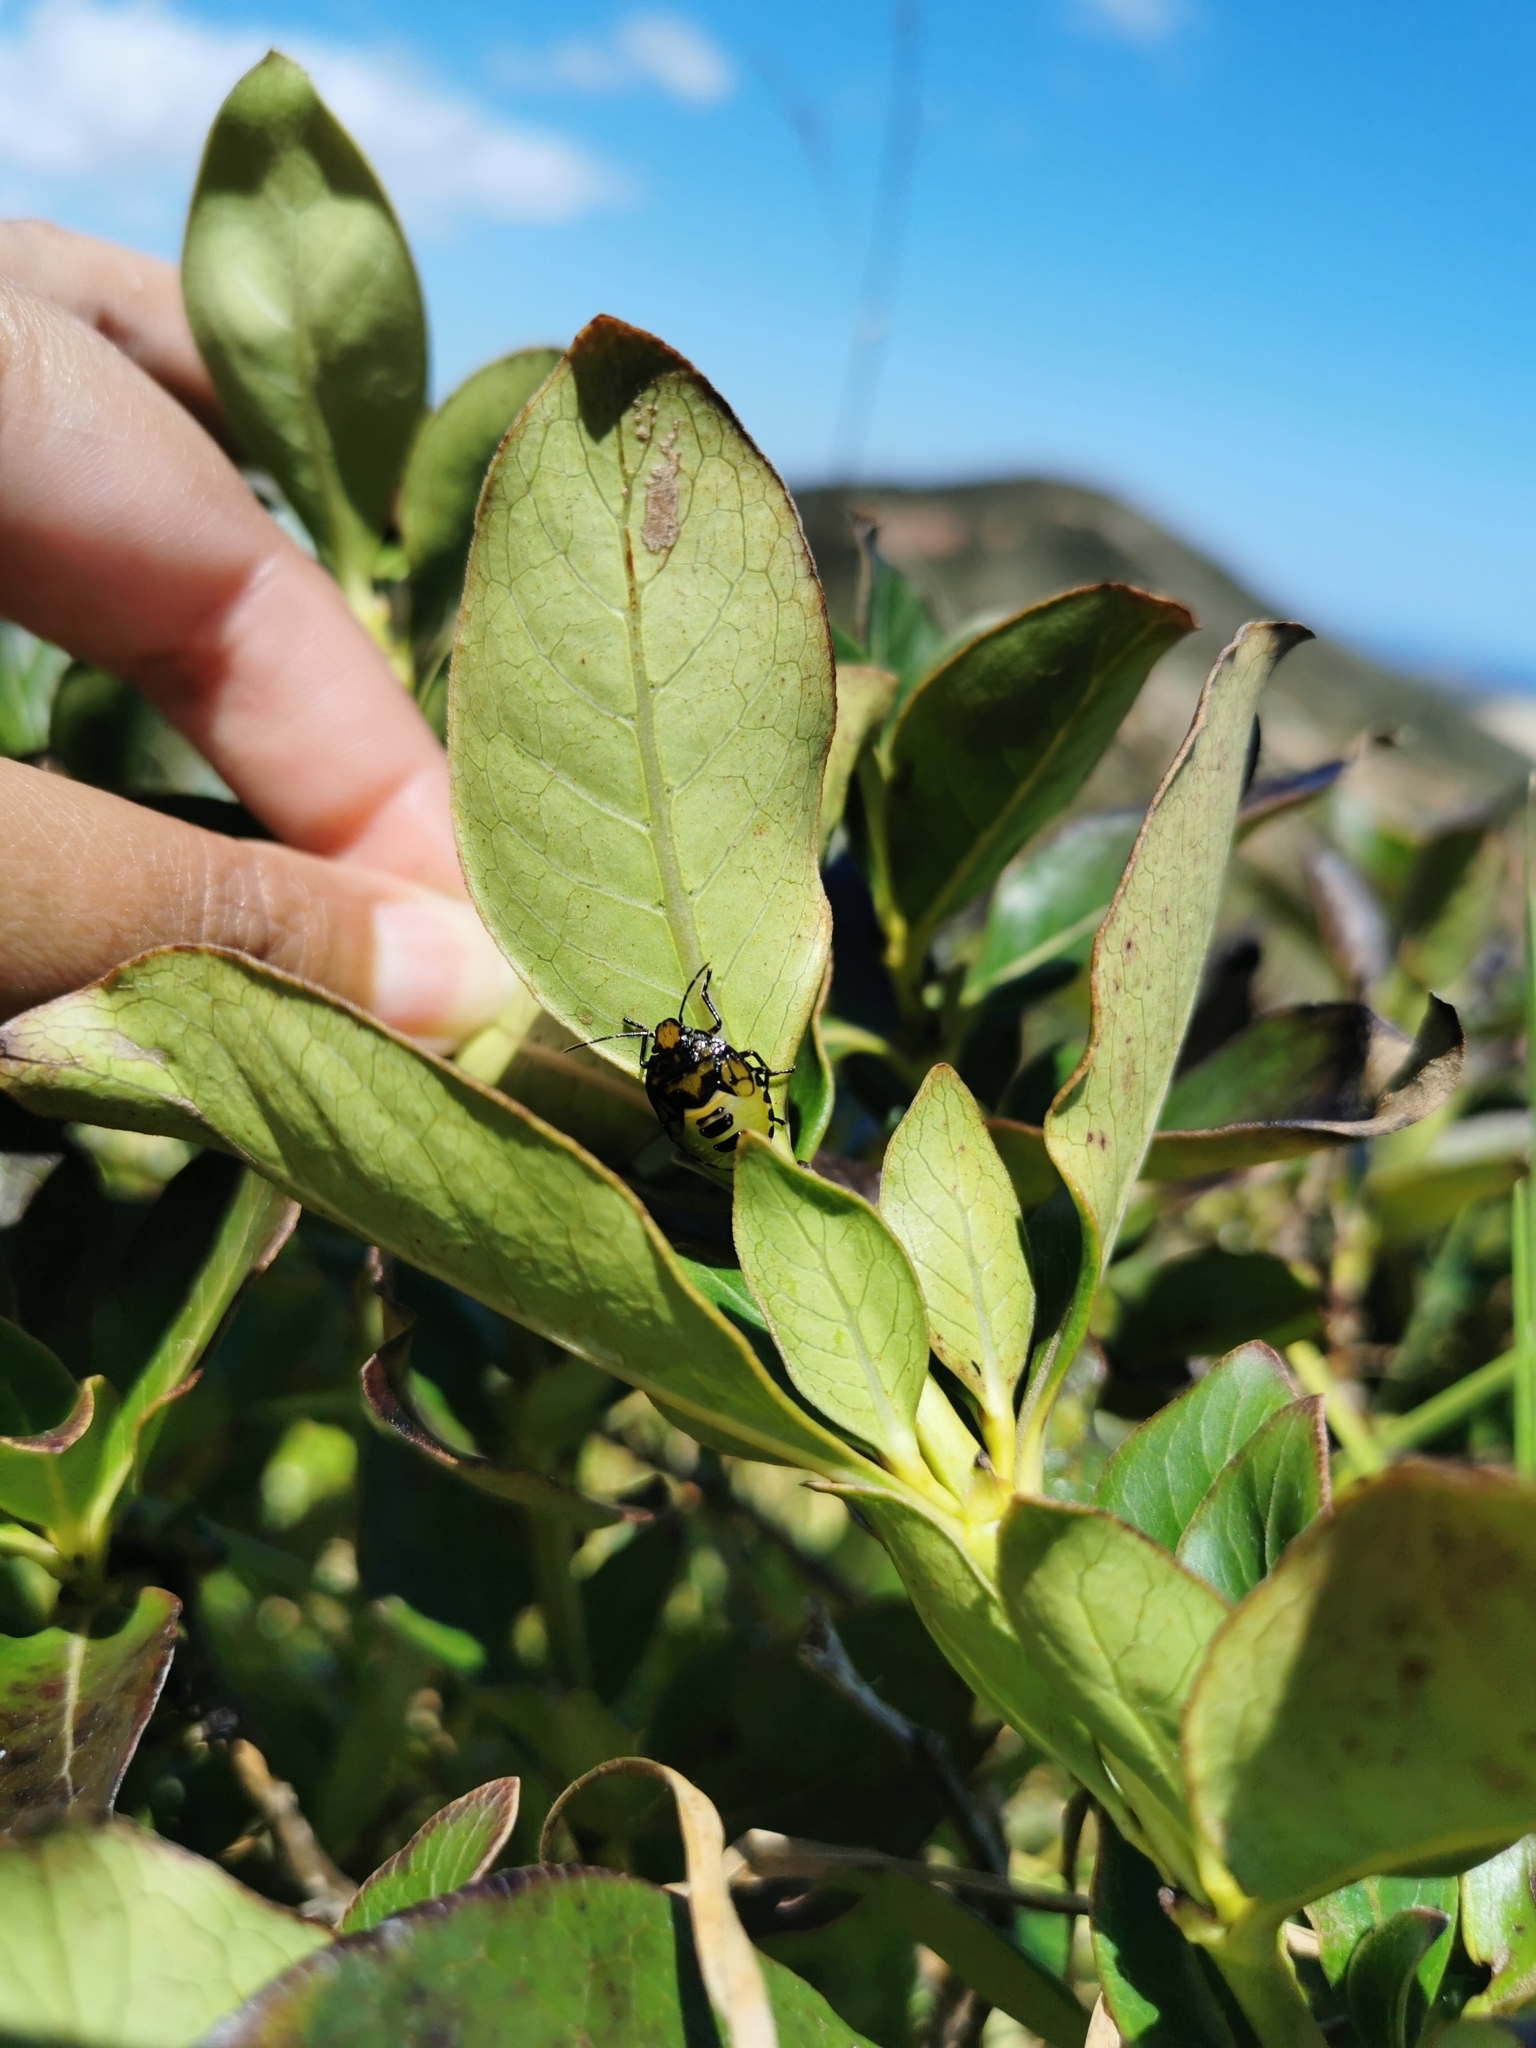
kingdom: Animalia
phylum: Arthropoda
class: Insecta
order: Hemiptera
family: Pentatomidae
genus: Glaucias
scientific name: Glaucias amyota
